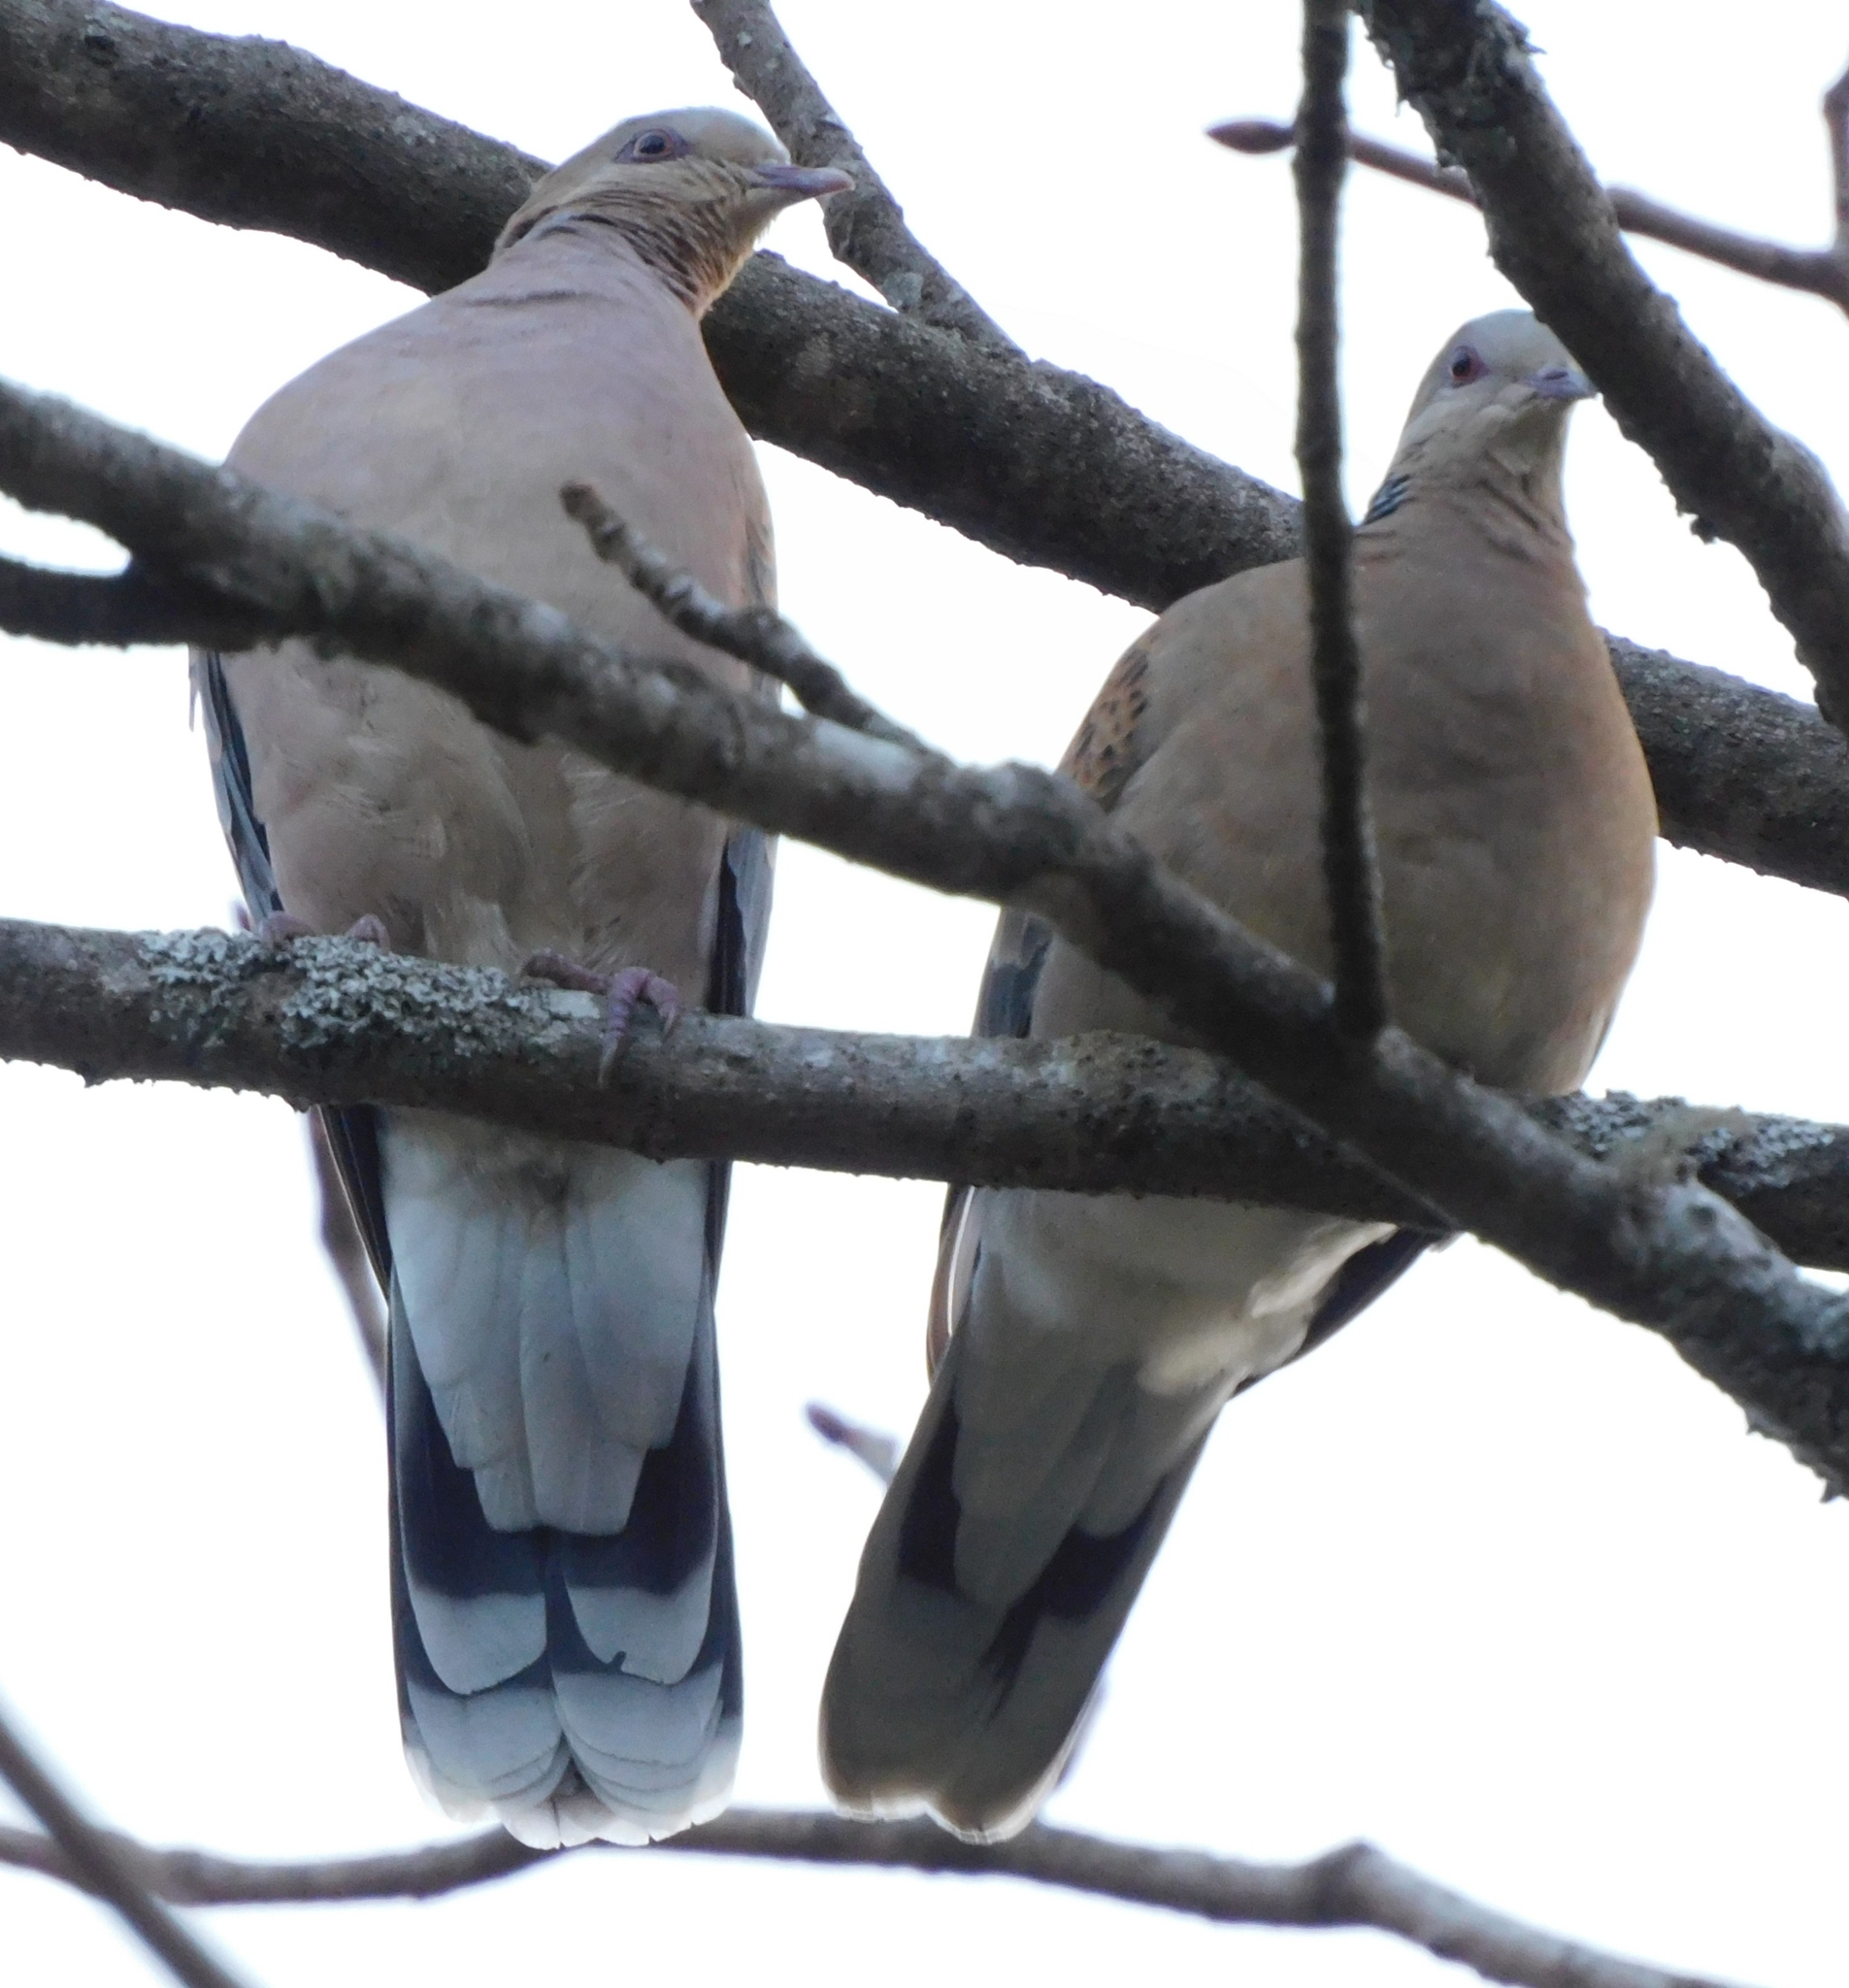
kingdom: Animalia
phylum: Chordata
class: Aves
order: Columbiformes
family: Columbidae
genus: Streptopelia
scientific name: Streptopelia orientalis
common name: Oriental turtle dove
